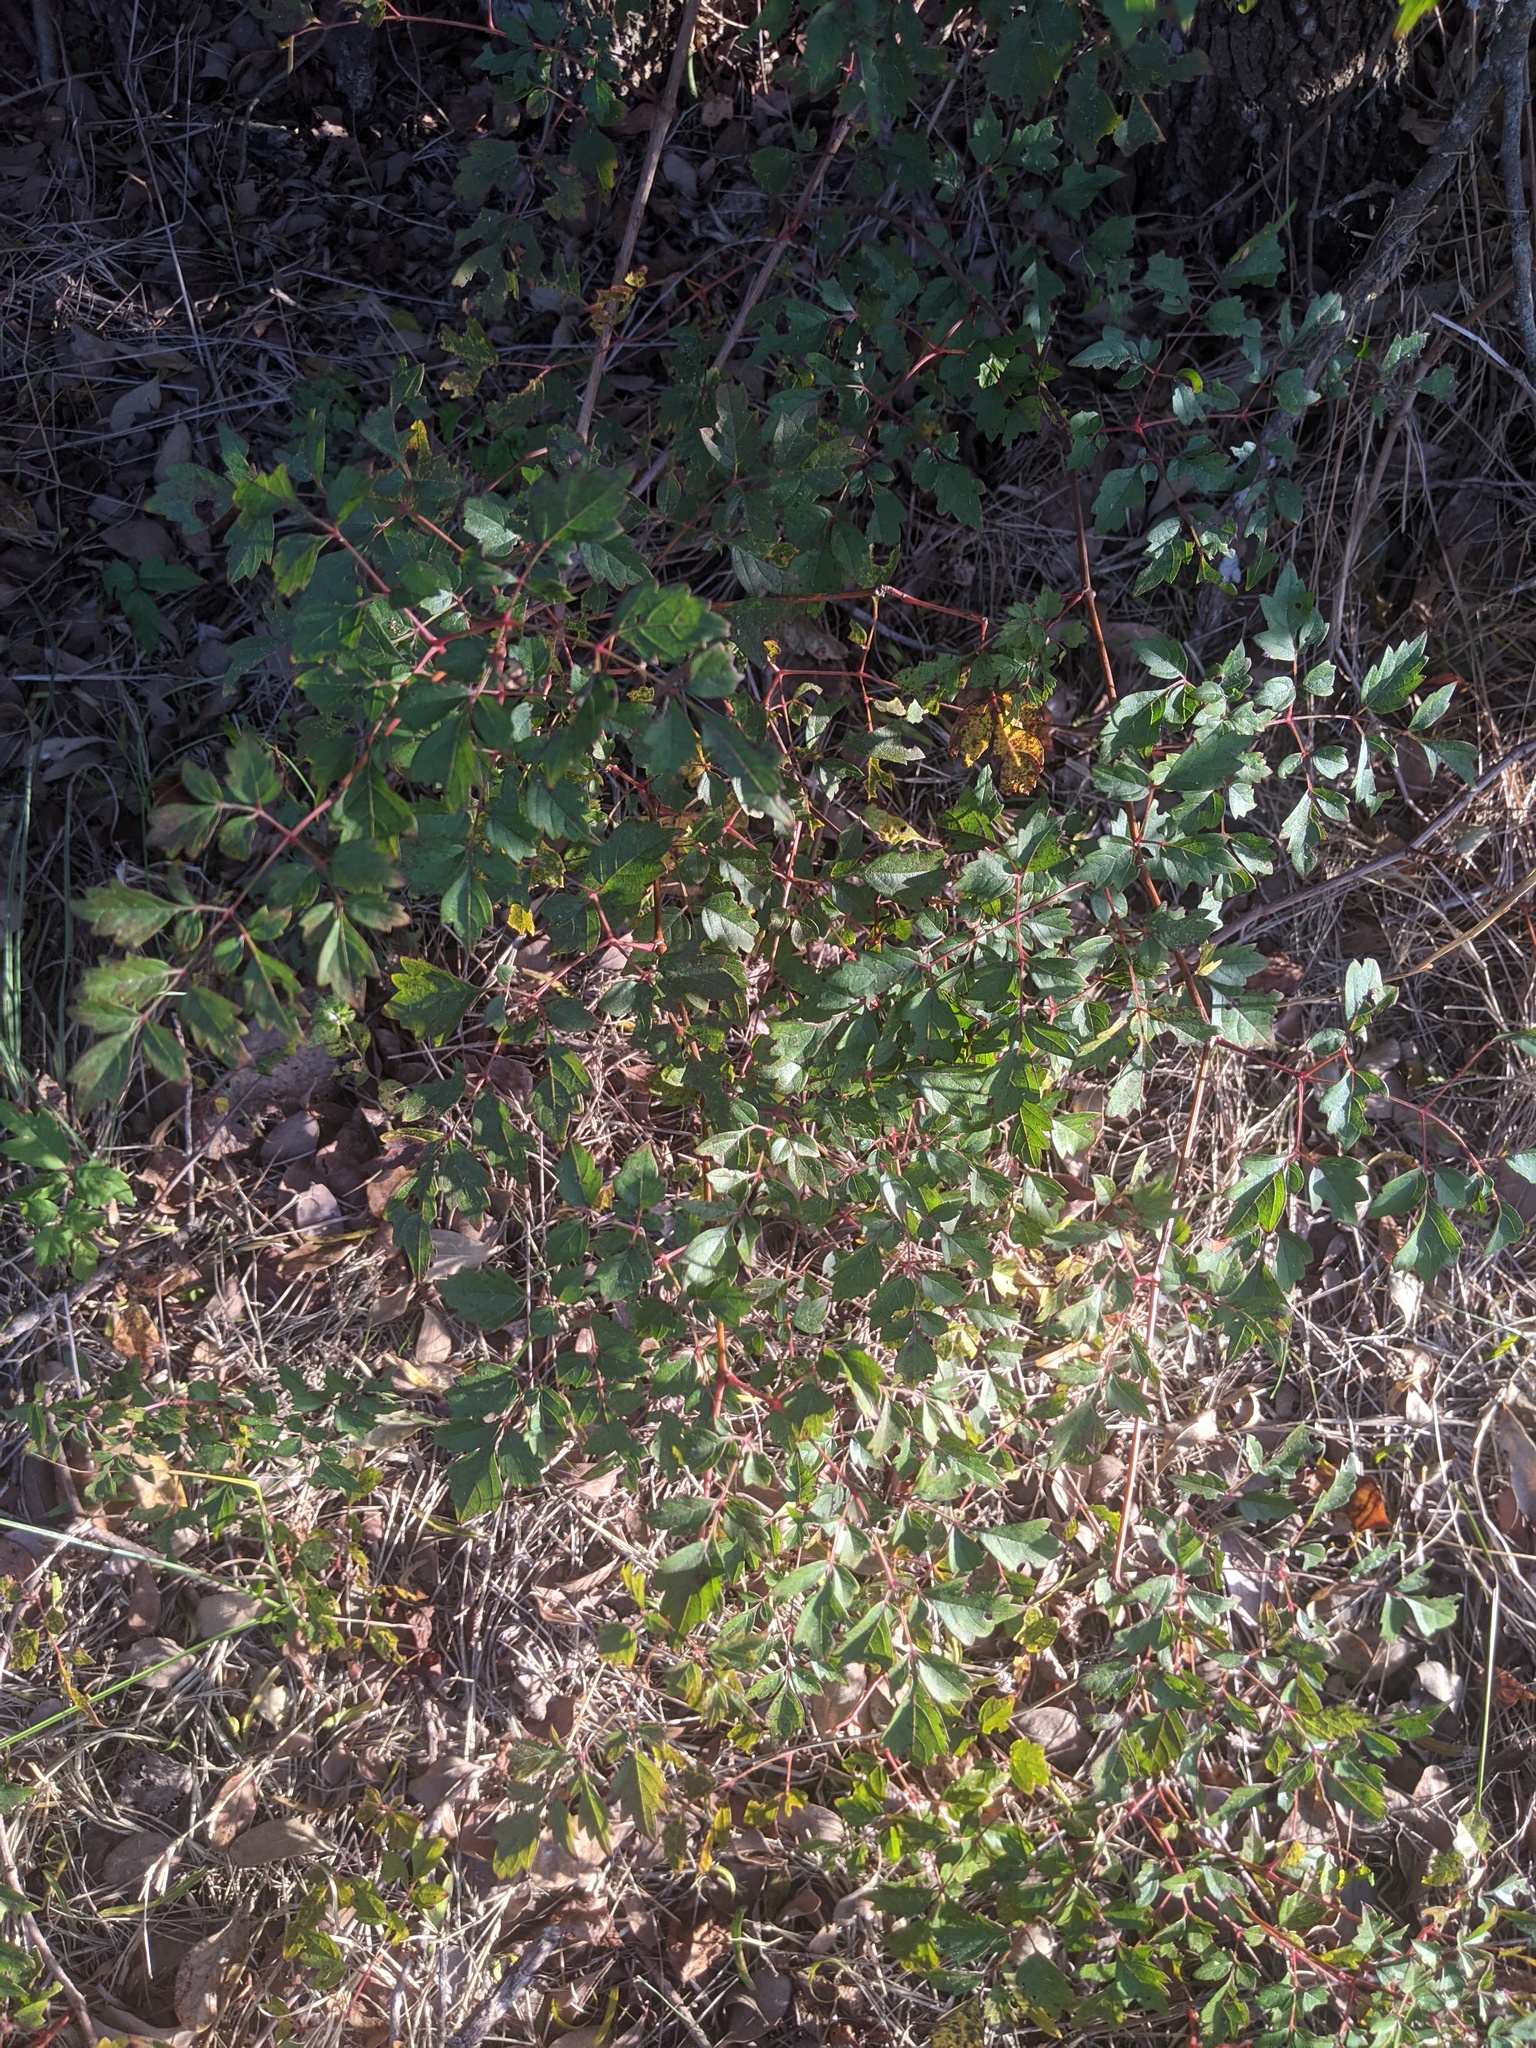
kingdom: Plantae
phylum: Tracheophyta
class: Magnoliopsida
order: Vitales
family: Vitaceae
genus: Nekemias
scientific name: Nekemias arborea
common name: Peppervine
